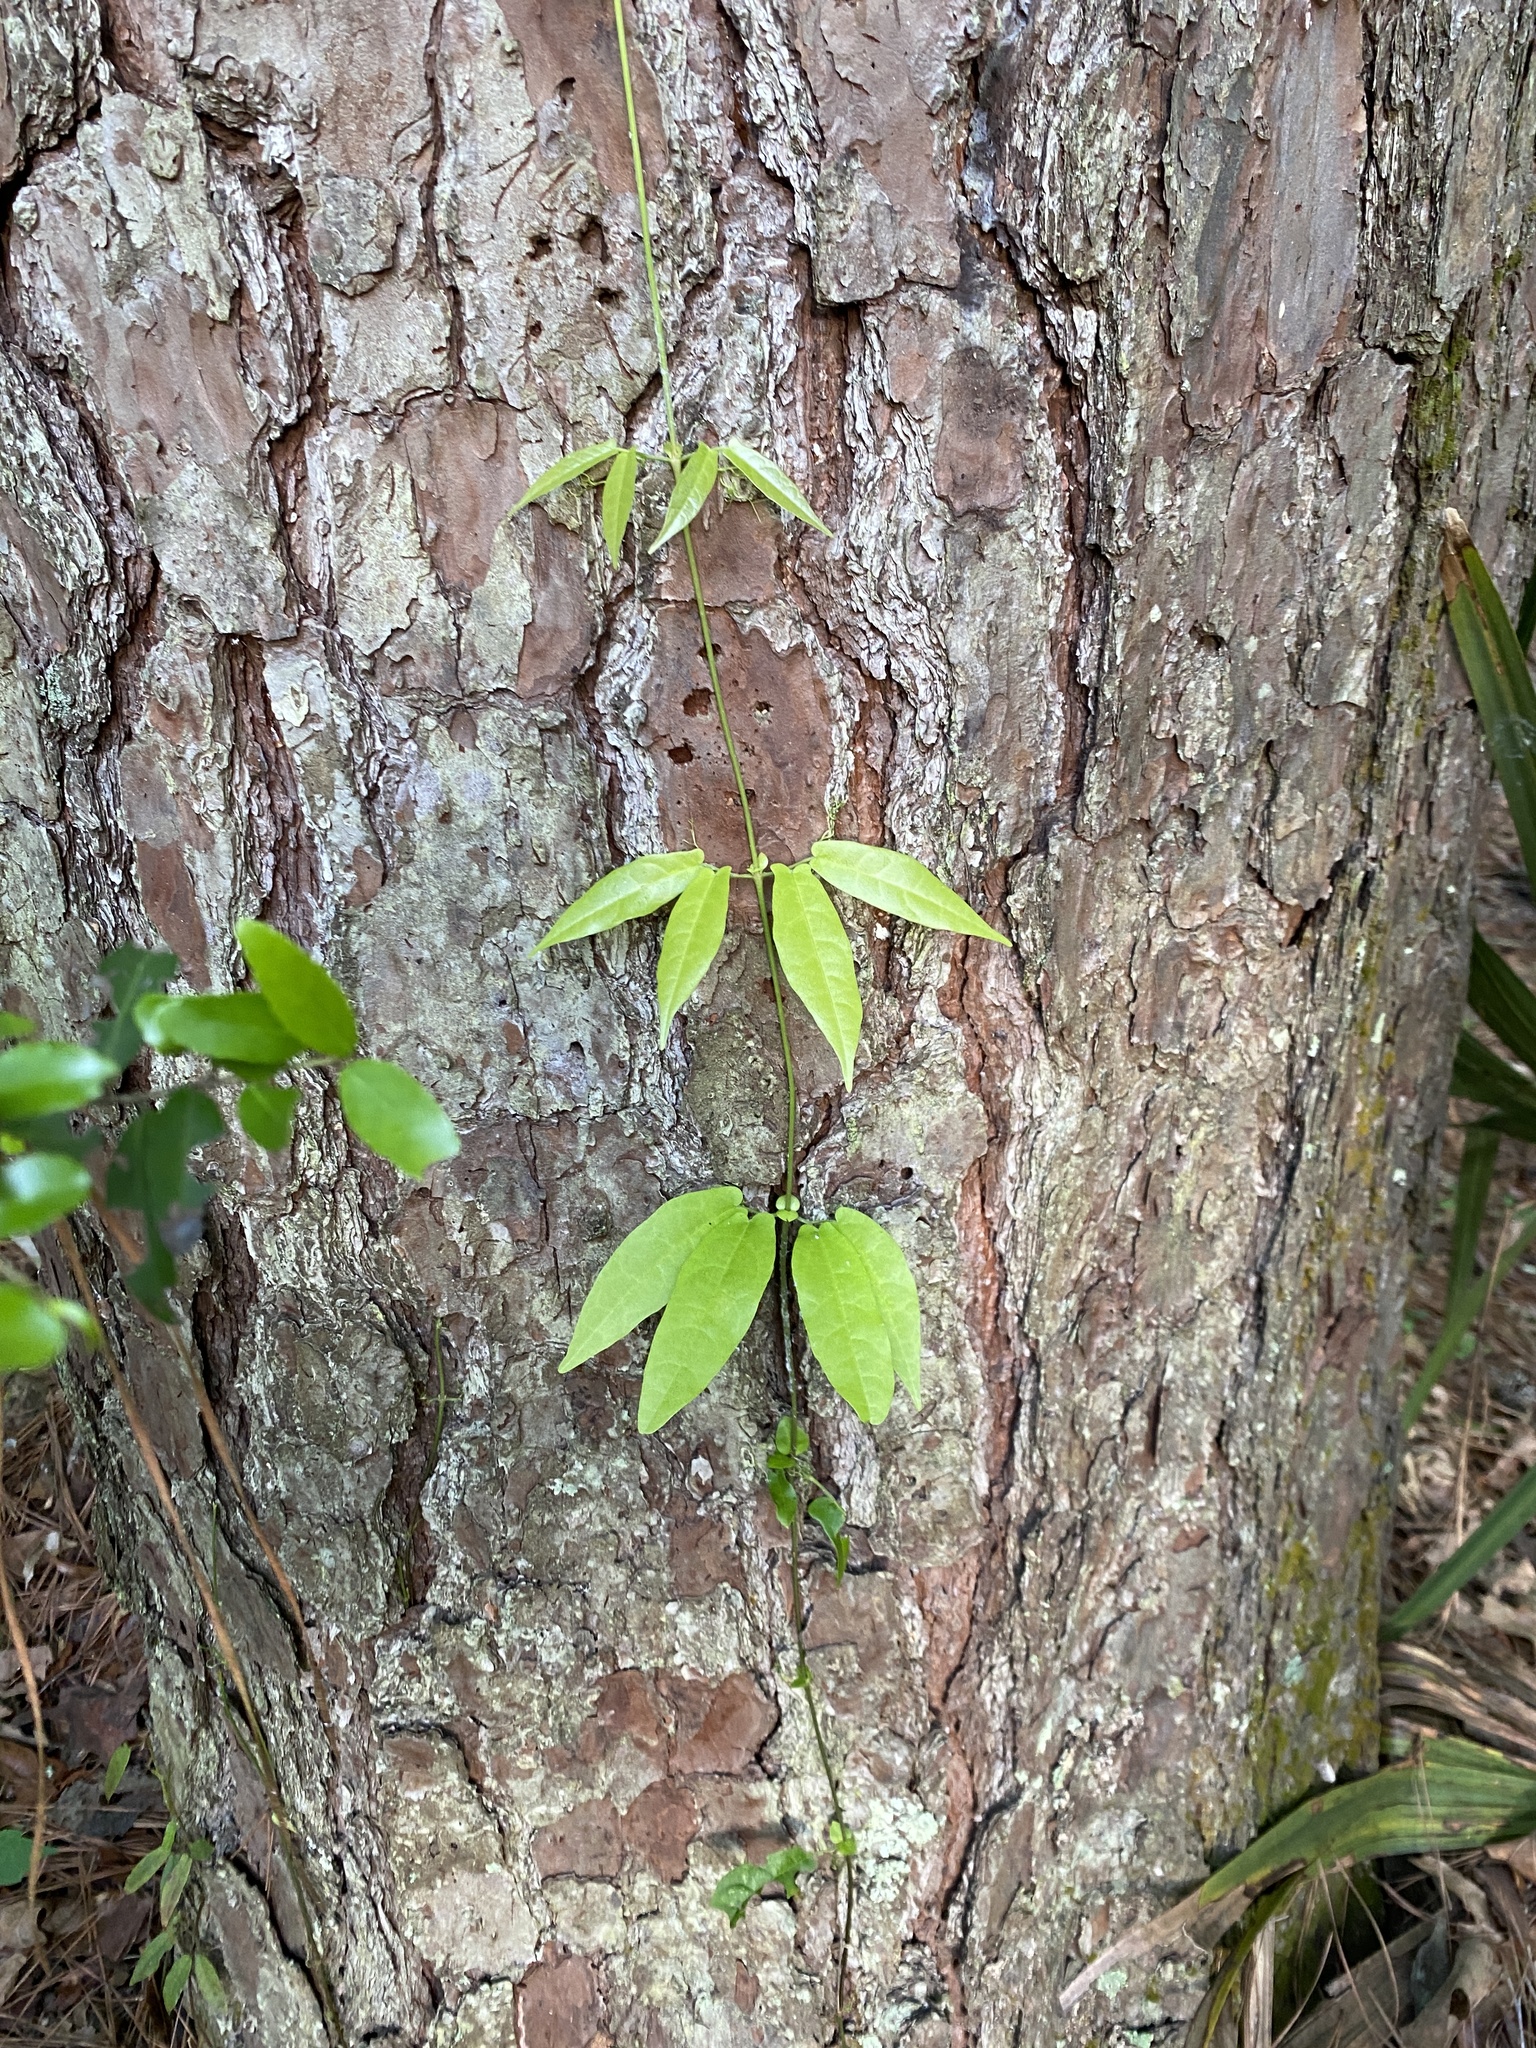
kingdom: Plantae
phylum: Tracheophyta
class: Magnoliopsida
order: Lamiales
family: Bignoniaceae
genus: Bignonia
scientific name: Bignonia capreolata
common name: Crossvine
